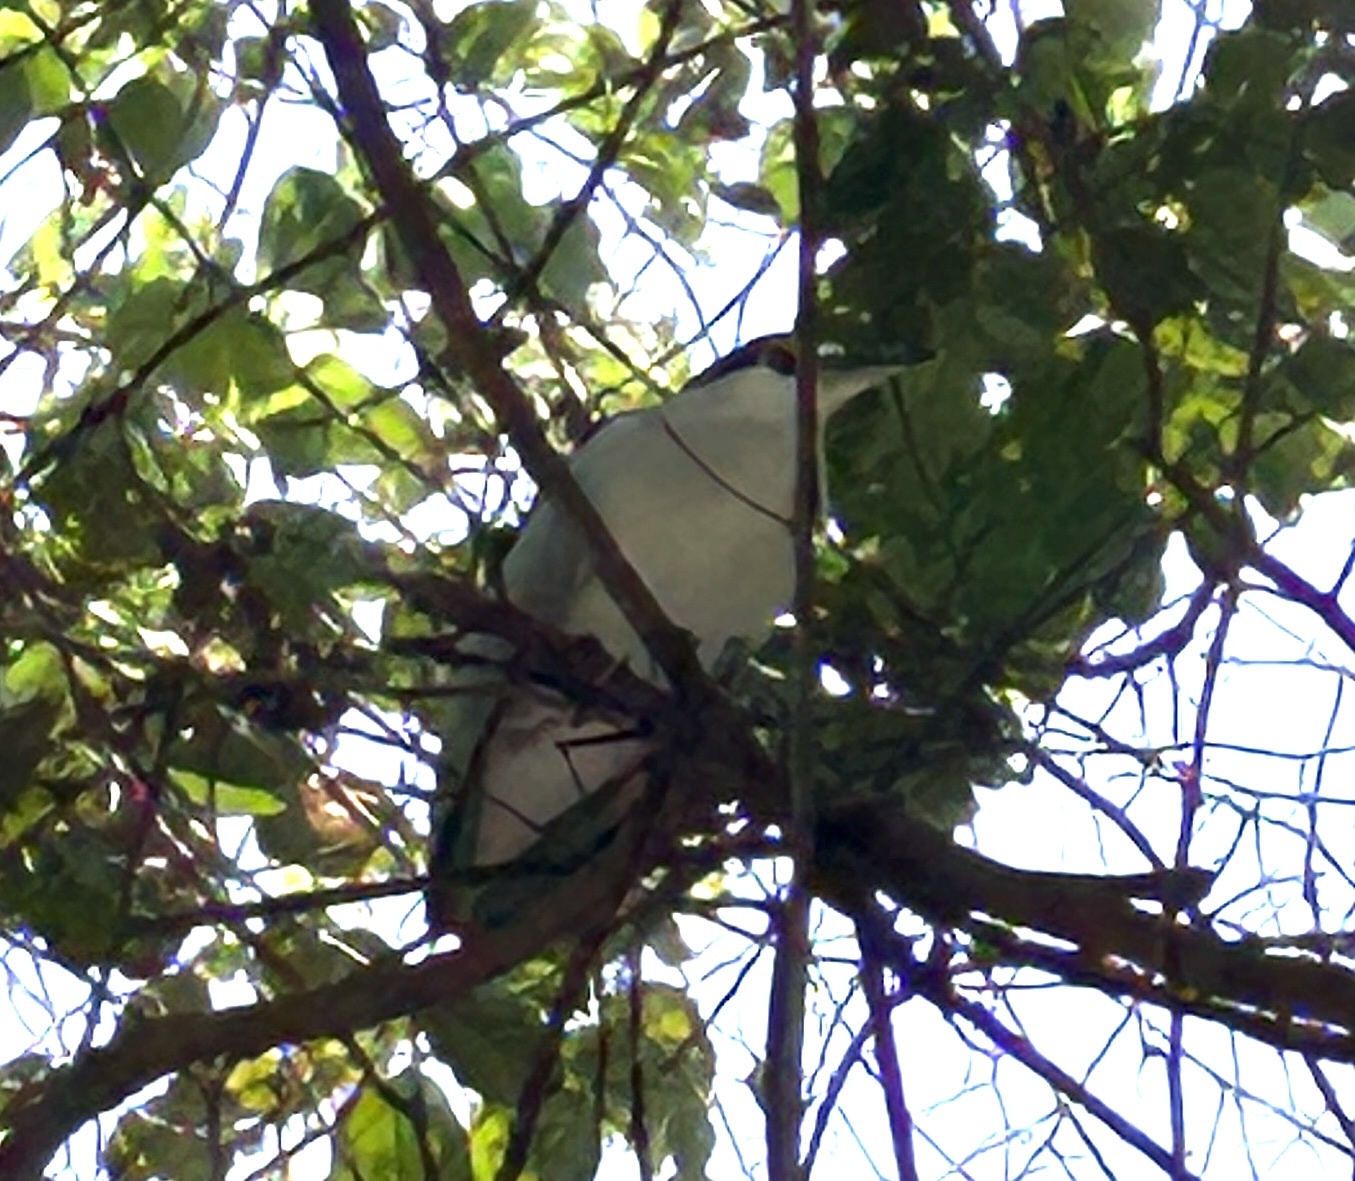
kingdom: Animalia
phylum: Chordata
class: Aves
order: Pelecaniformes
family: Ardeidae
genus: Nycticorax
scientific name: Nycticorax nycticorax
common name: Black-crowned night heron
